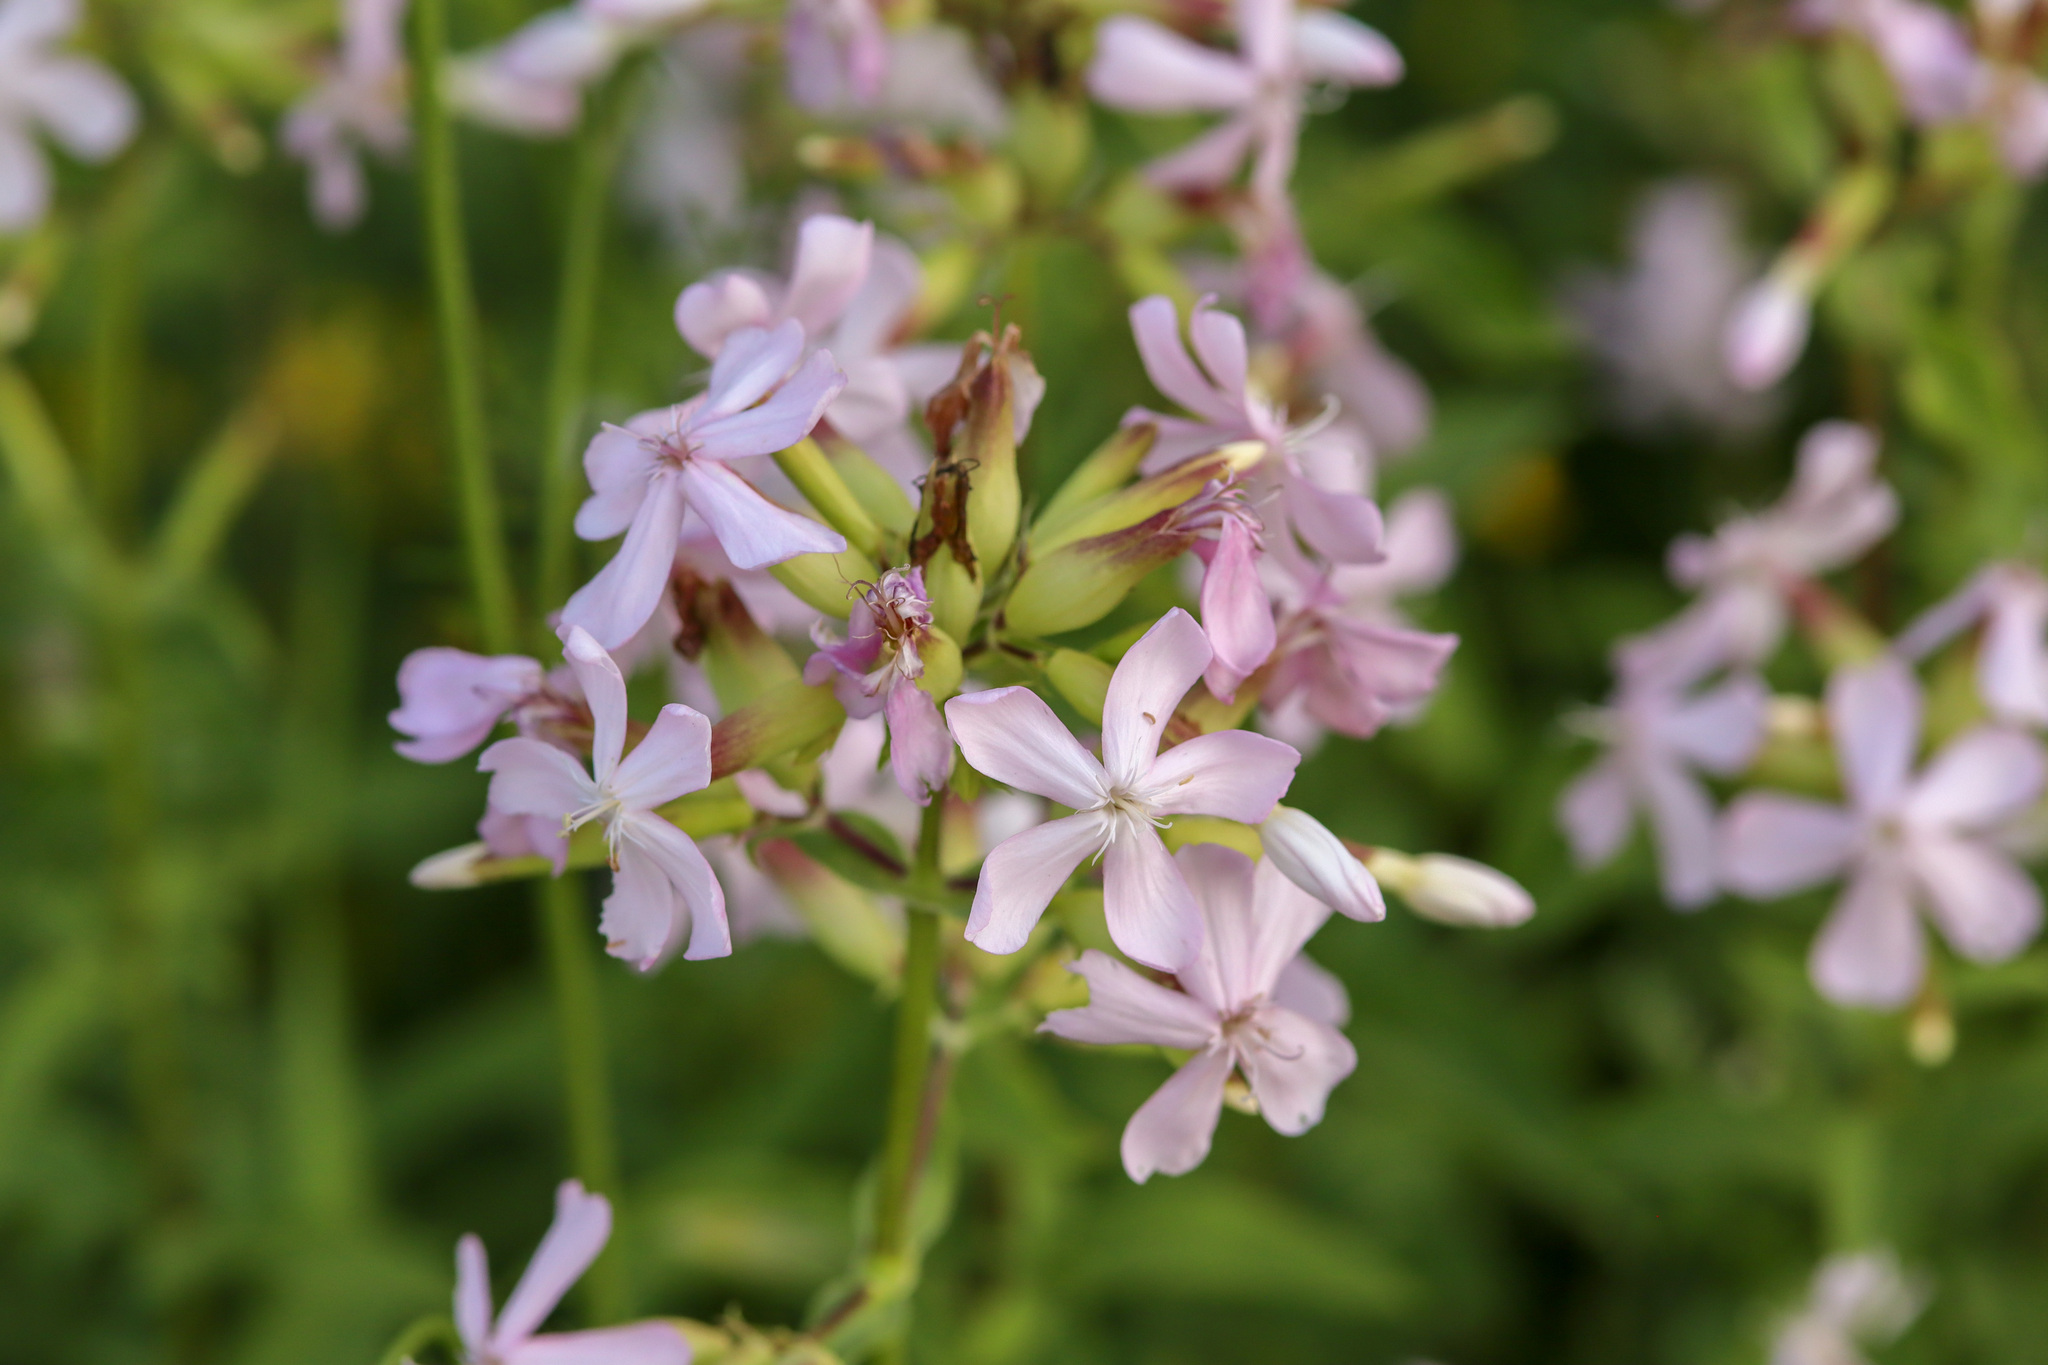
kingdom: Plantae
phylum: Tracheophyta
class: Magnoliopsida
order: Caryophyllales
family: Caryophyllaceae
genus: Saponaria
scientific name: Saponaria officinalis
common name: Soapwort
